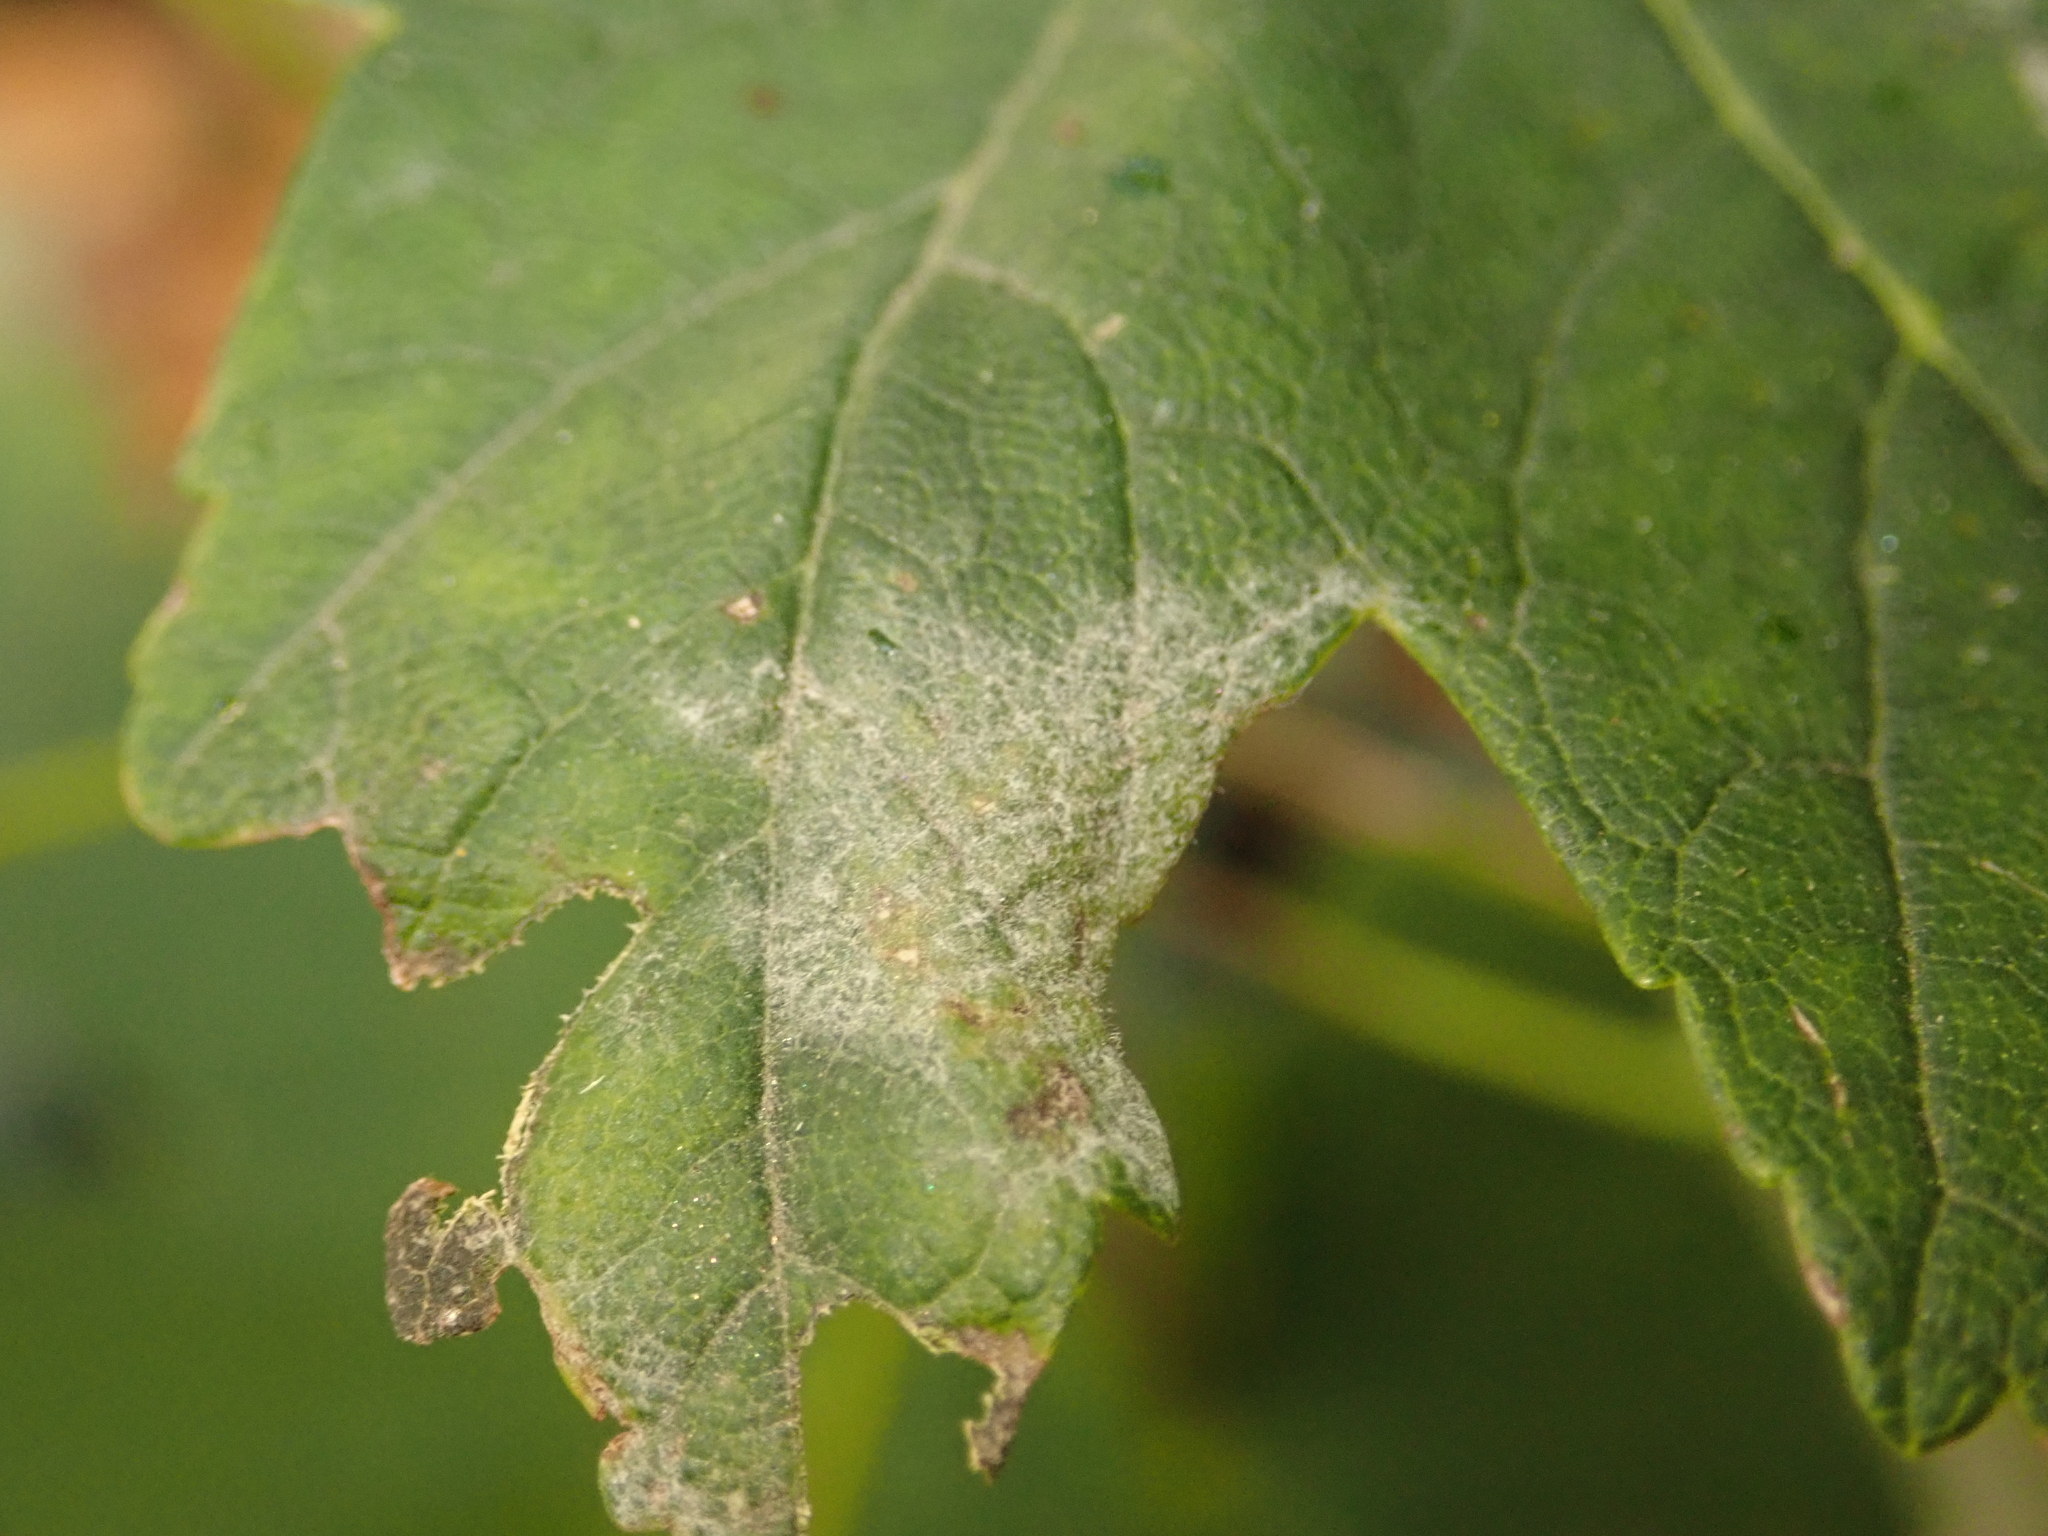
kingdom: Fungi
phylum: Ascomycota
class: Leotiomycetes
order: Helotiales
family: Erysiphaceae
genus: Sawadaea
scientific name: Sawadaea bicornis
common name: Maple mildew
